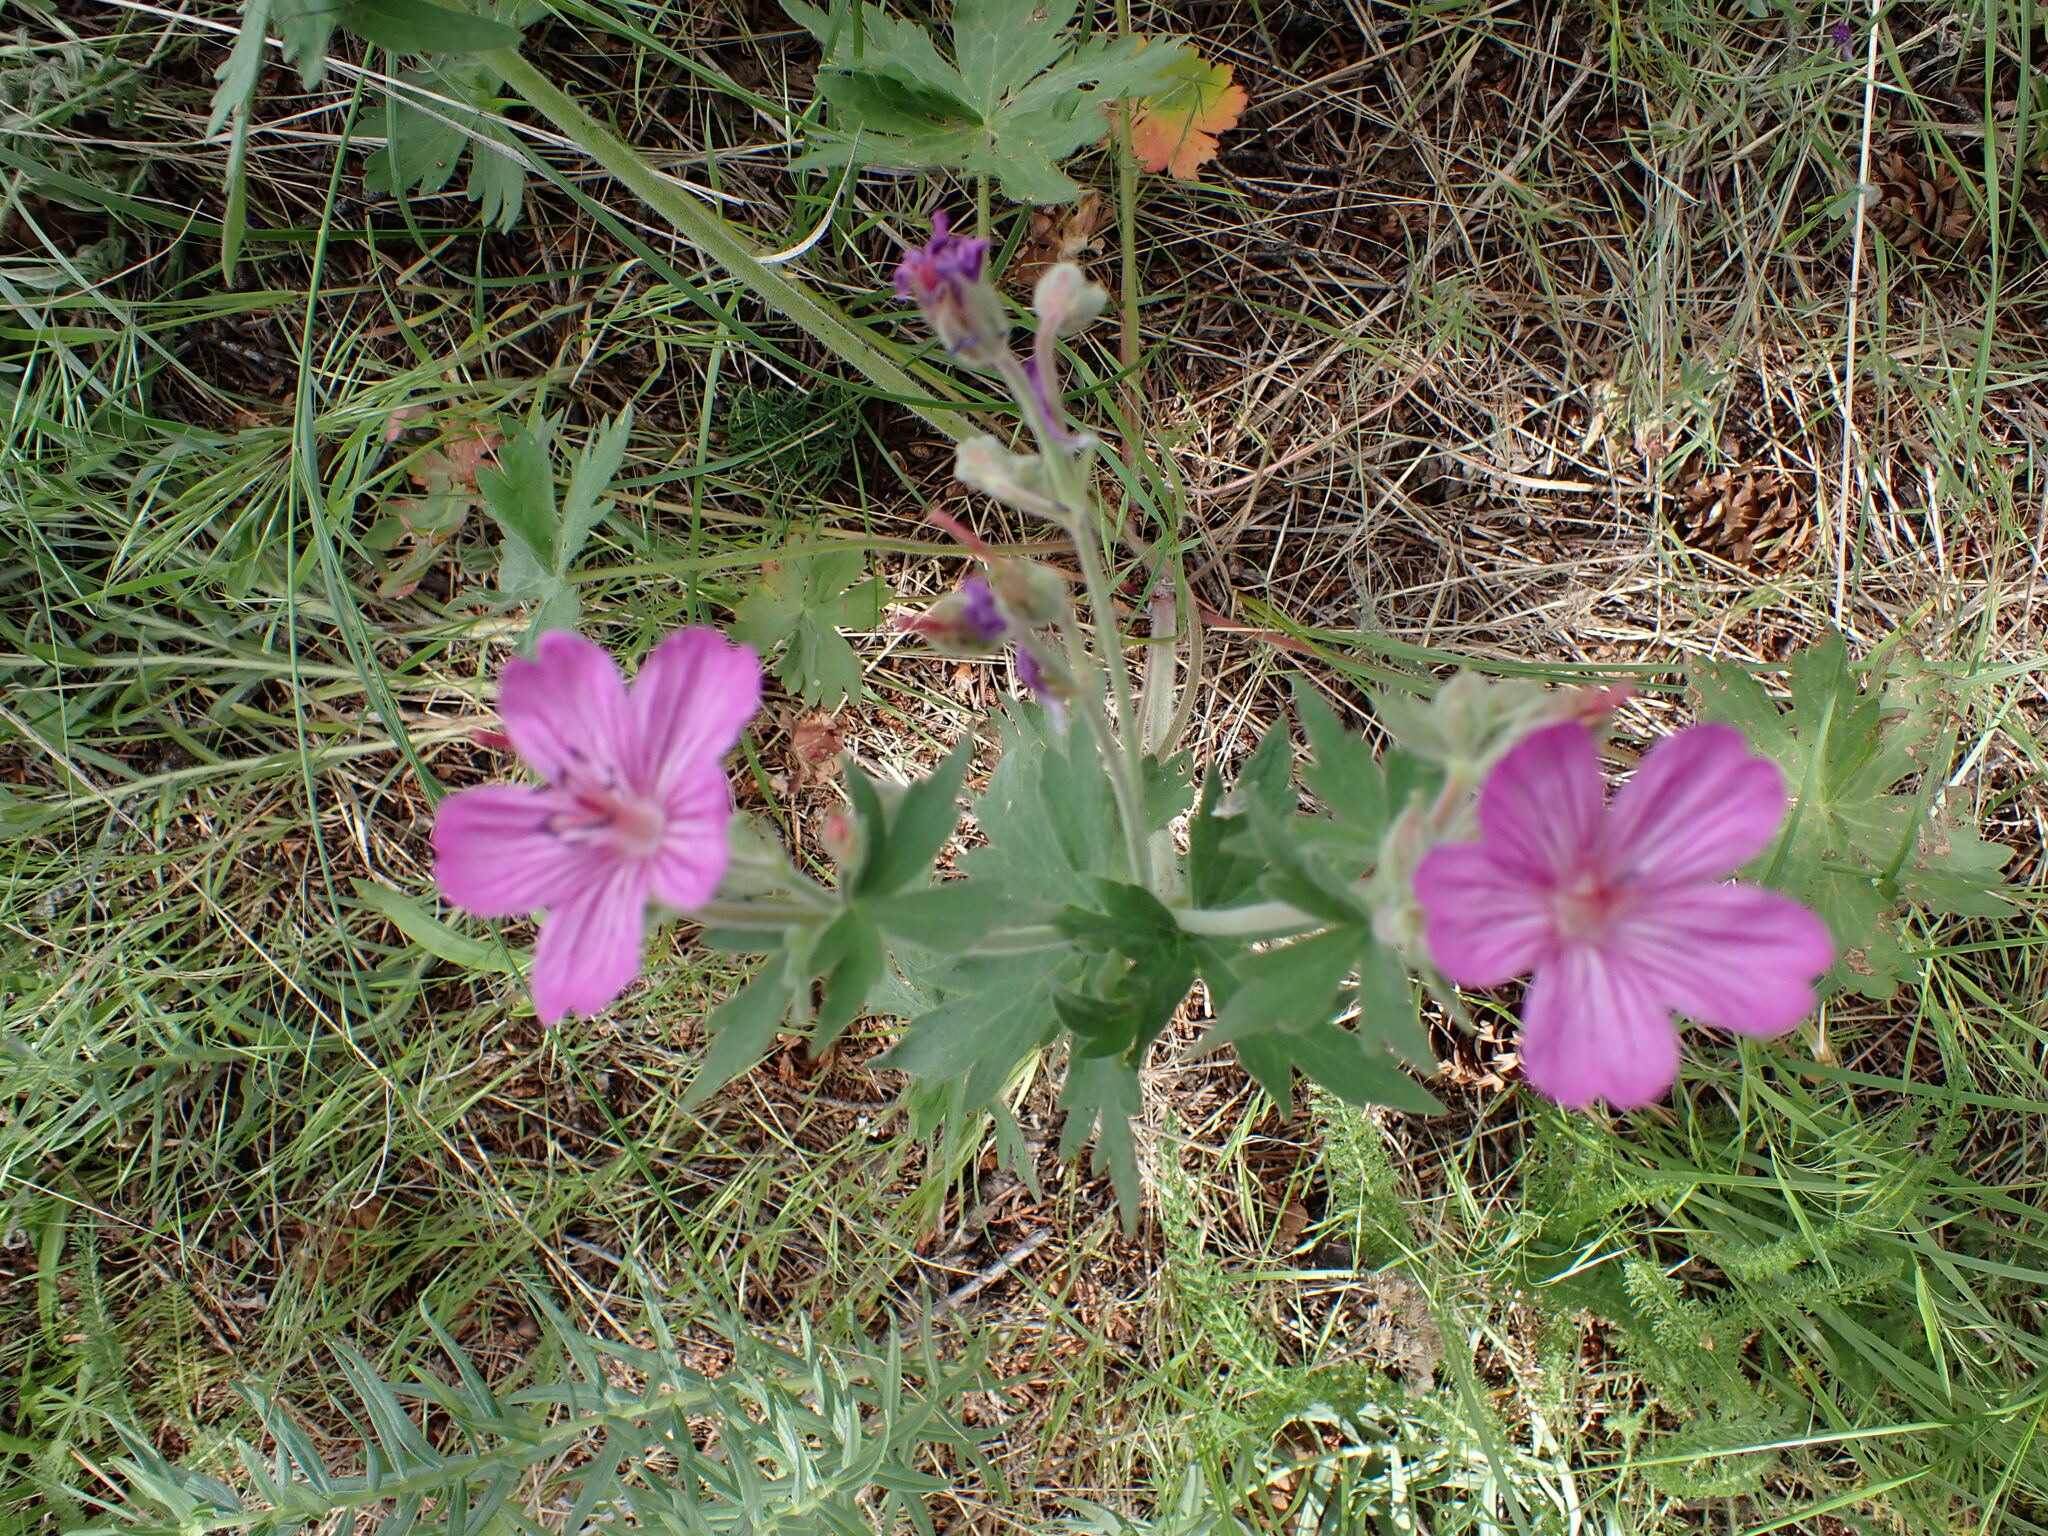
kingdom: Plantae
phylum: Tracheophyta
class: Magnoliopsida
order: Geraniales
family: Geraniaceae
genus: Geranium
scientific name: Geranium viscosissimum
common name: Purple geranium
